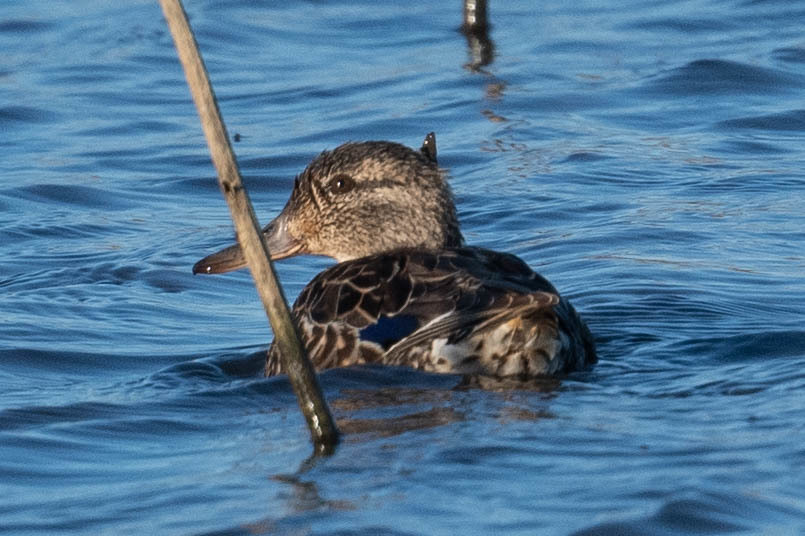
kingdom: Animalia
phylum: Chordata
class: Aves
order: Anseriformes
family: Anatidae
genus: Anas
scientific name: Anas crecca
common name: Eurasian teal
